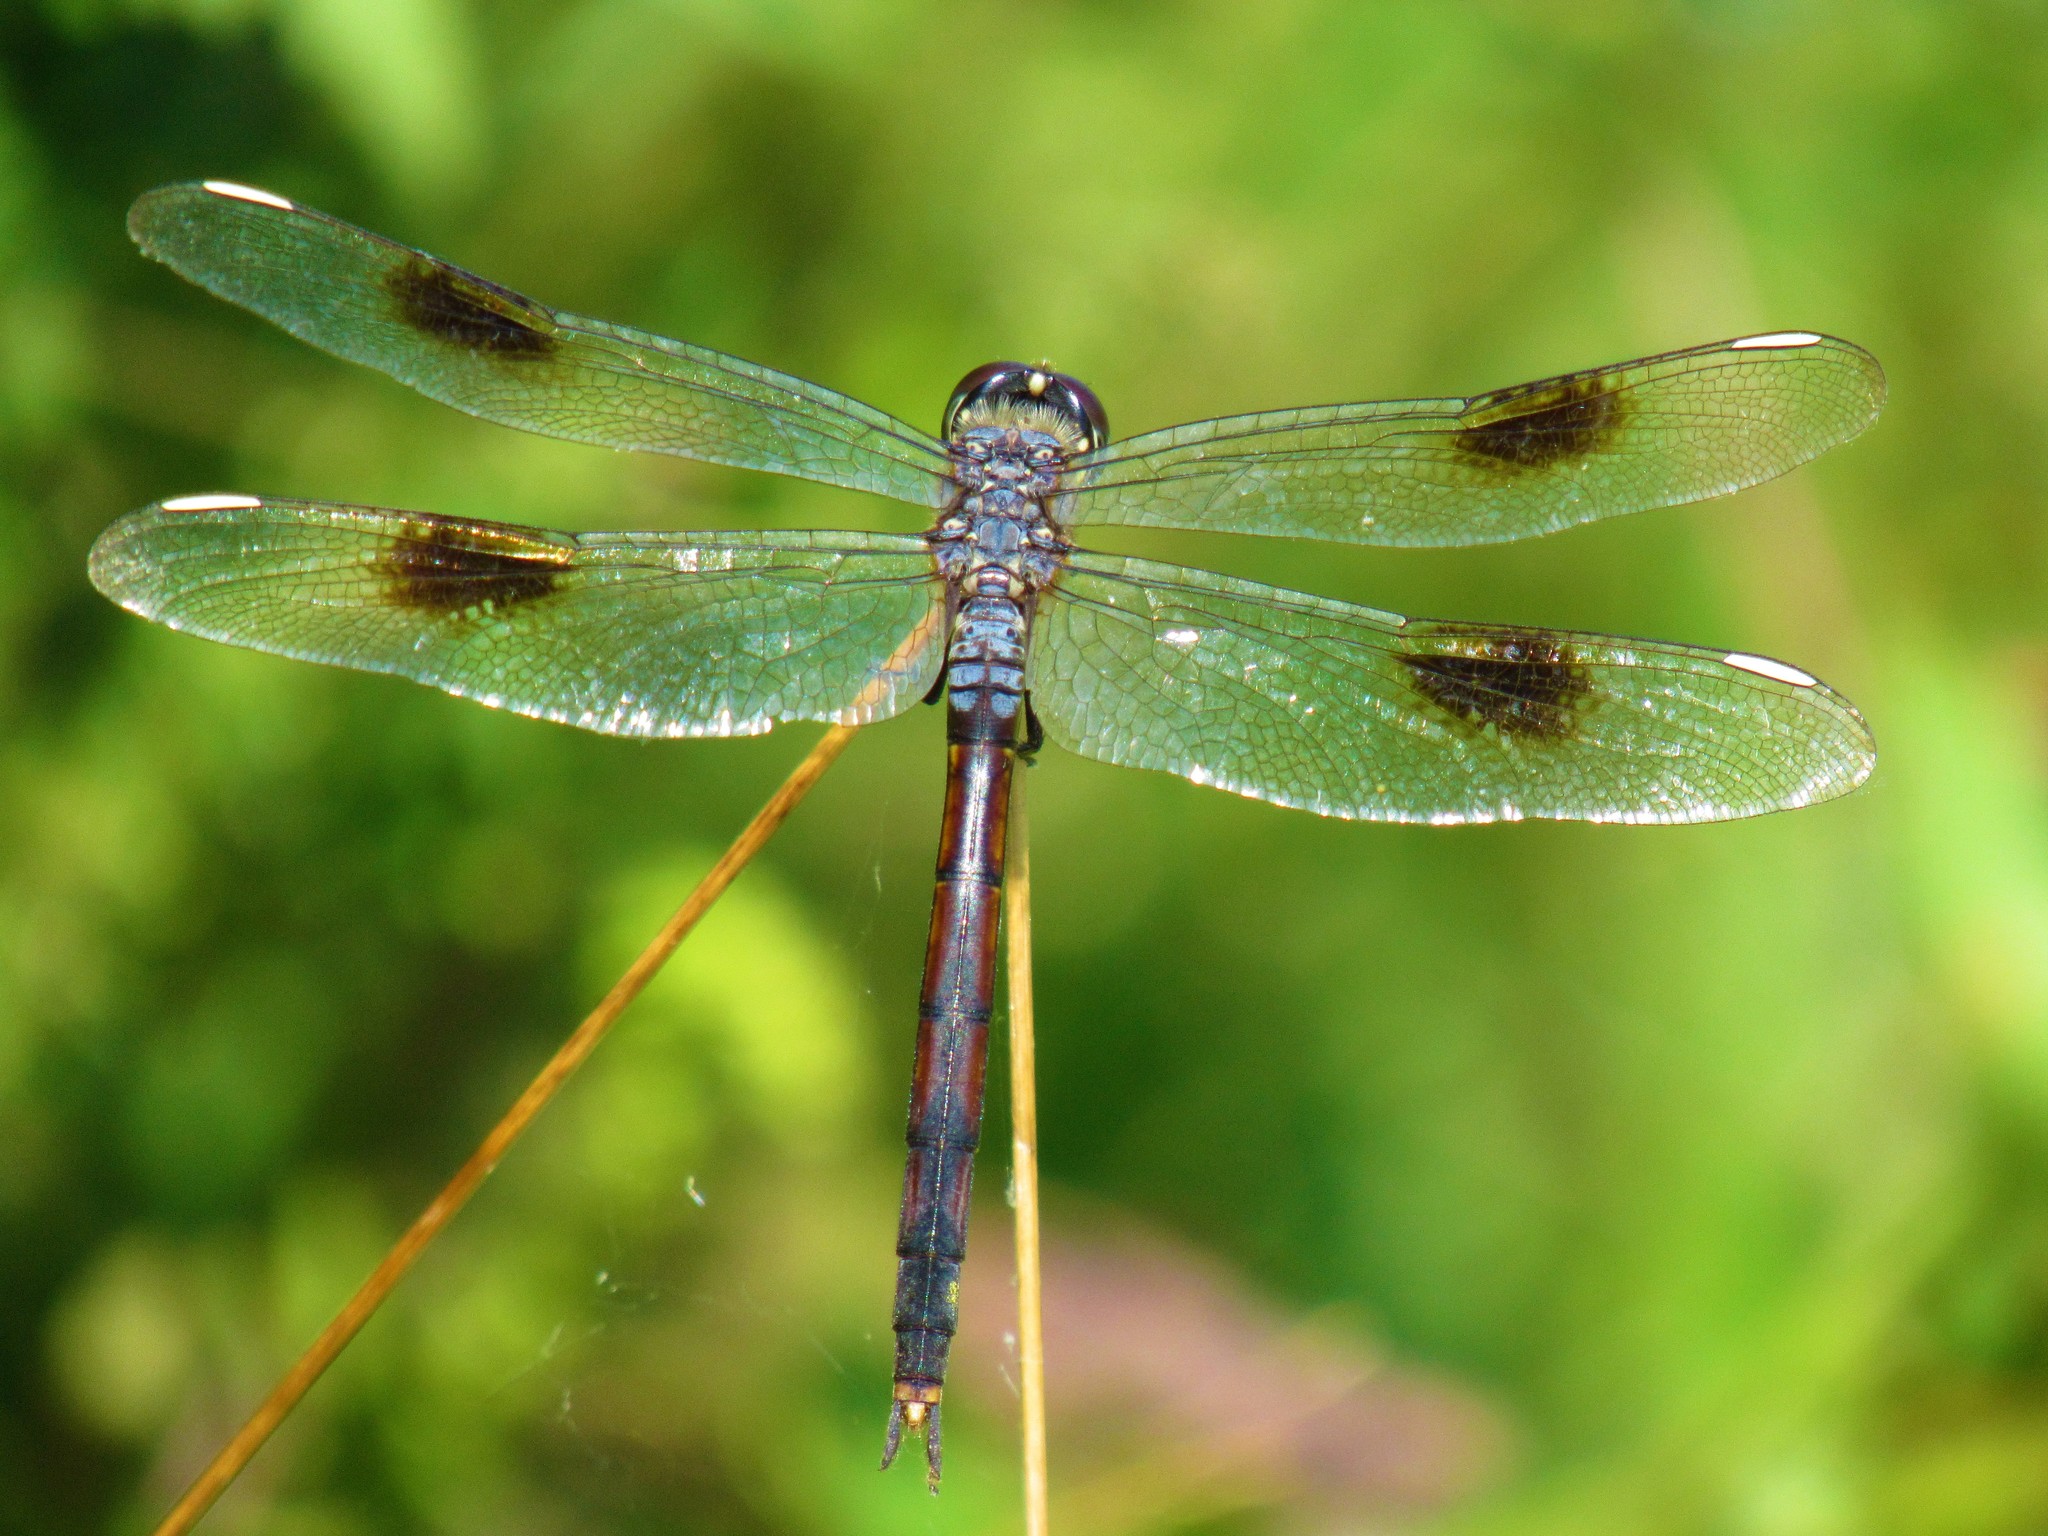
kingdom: Animalia
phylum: Arthropoda
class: Insecta
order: Odonata
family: Libellulidae
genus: Brachymesia
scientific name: Brachymesia gravida
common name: Four-spotted pennant
